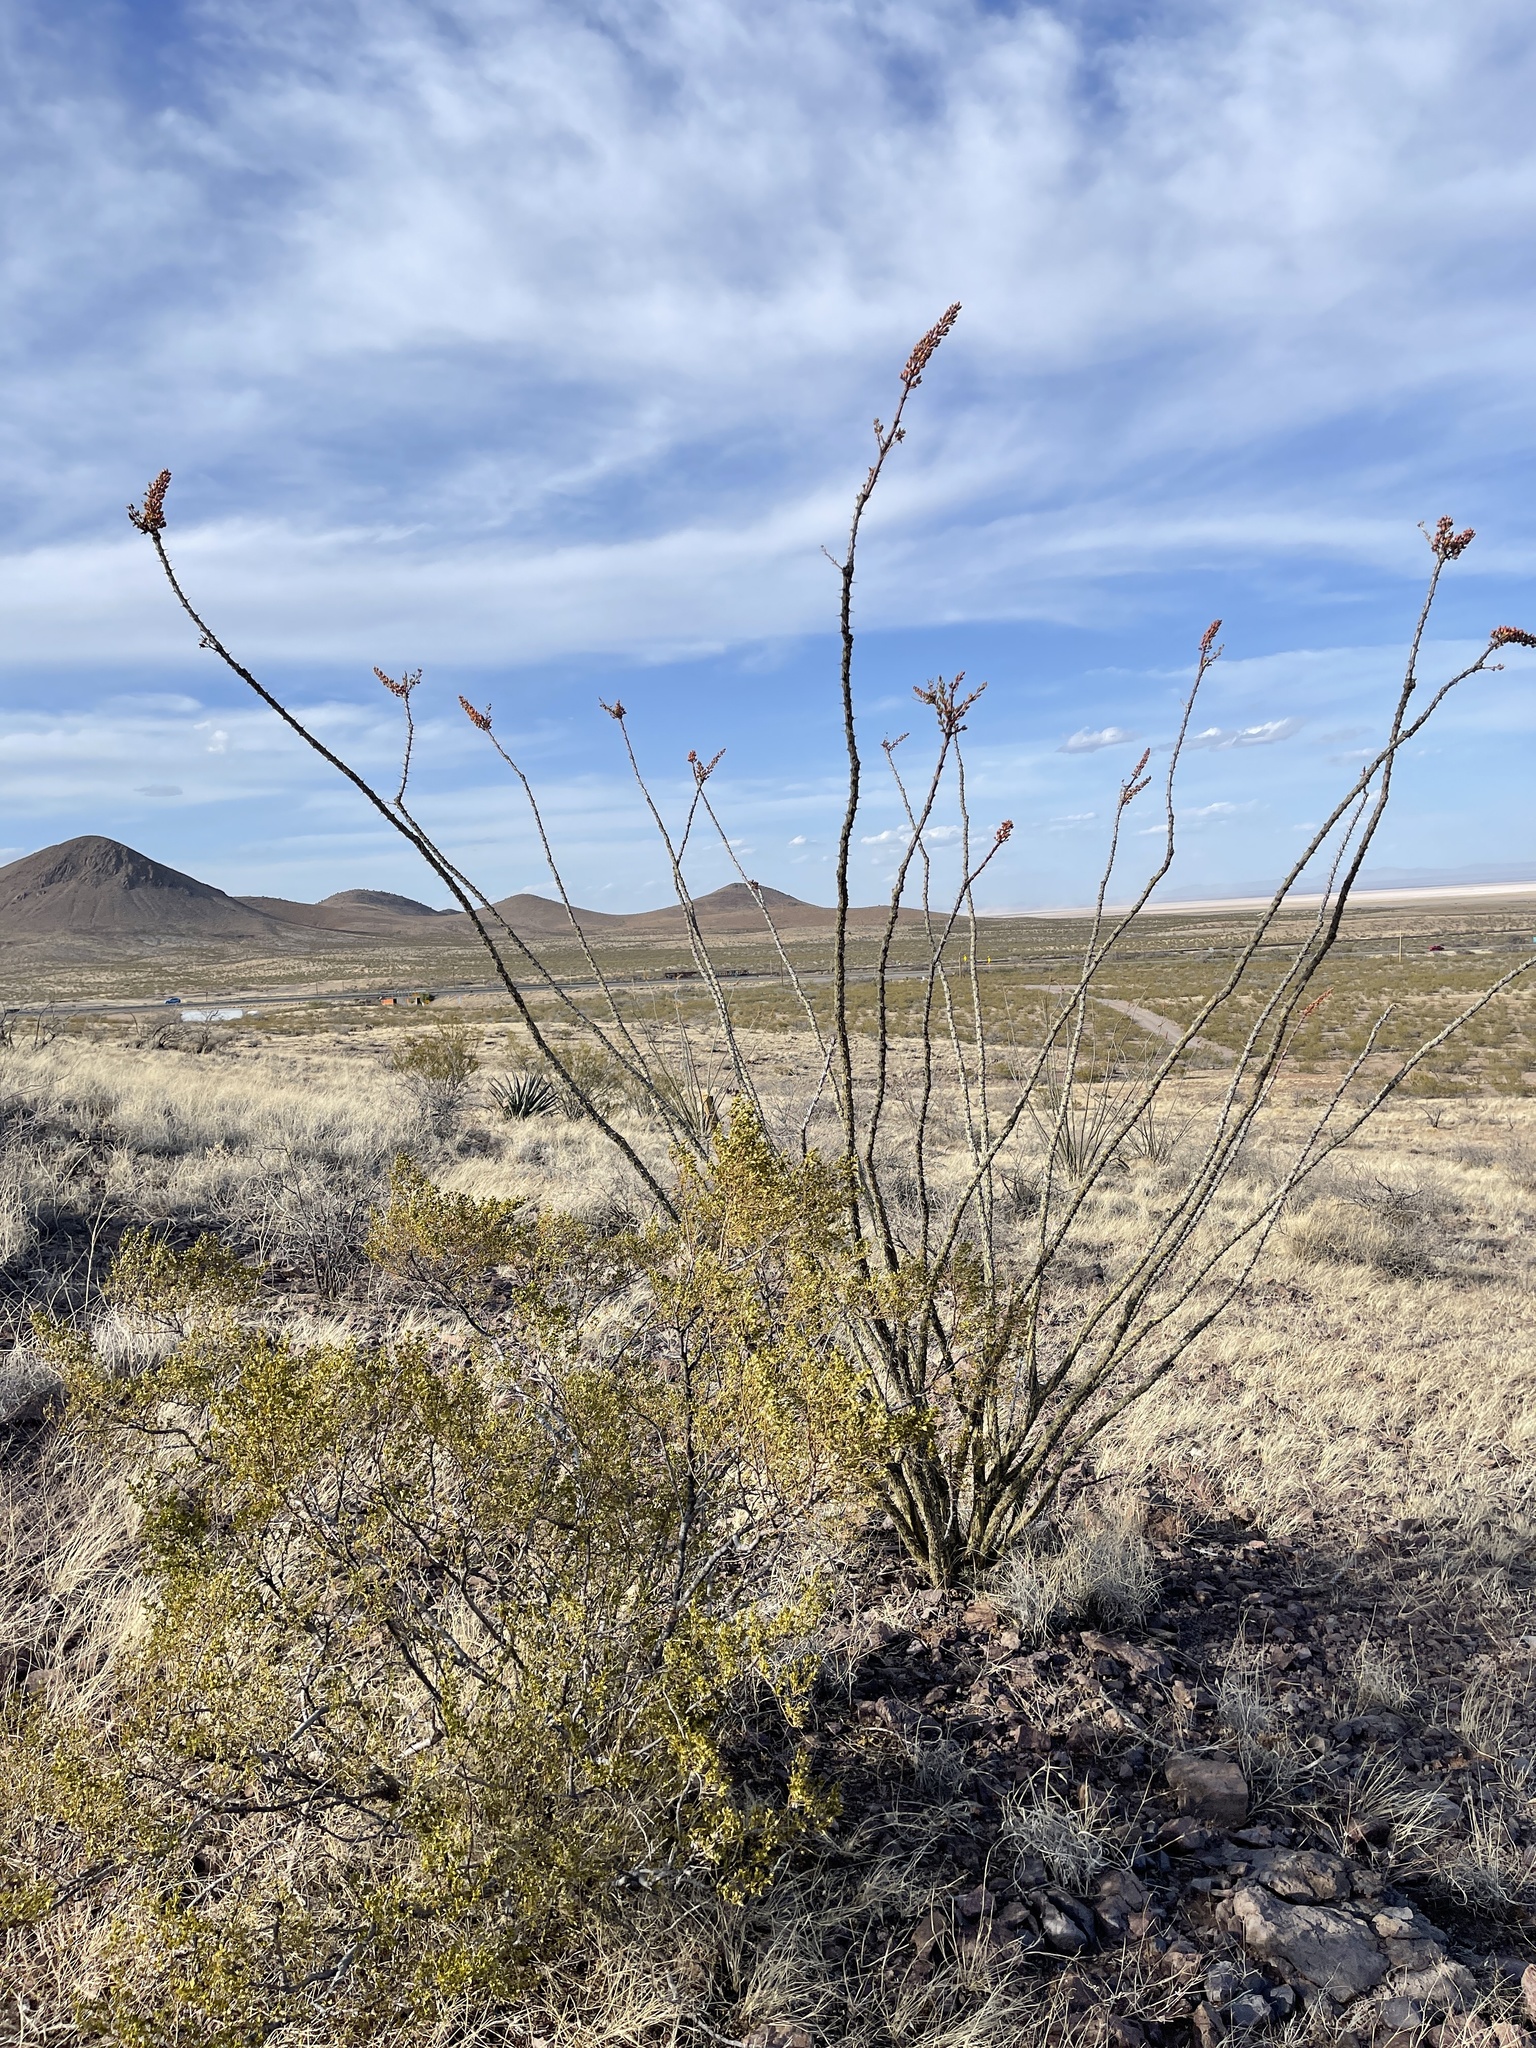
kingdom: Plantae
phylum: Tracheophyta
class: Magnoliopsida
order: Ericales
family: Fouquieriaceae
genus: Fouquieria
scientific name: Fouquieria splendens
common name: Vine-cactus
